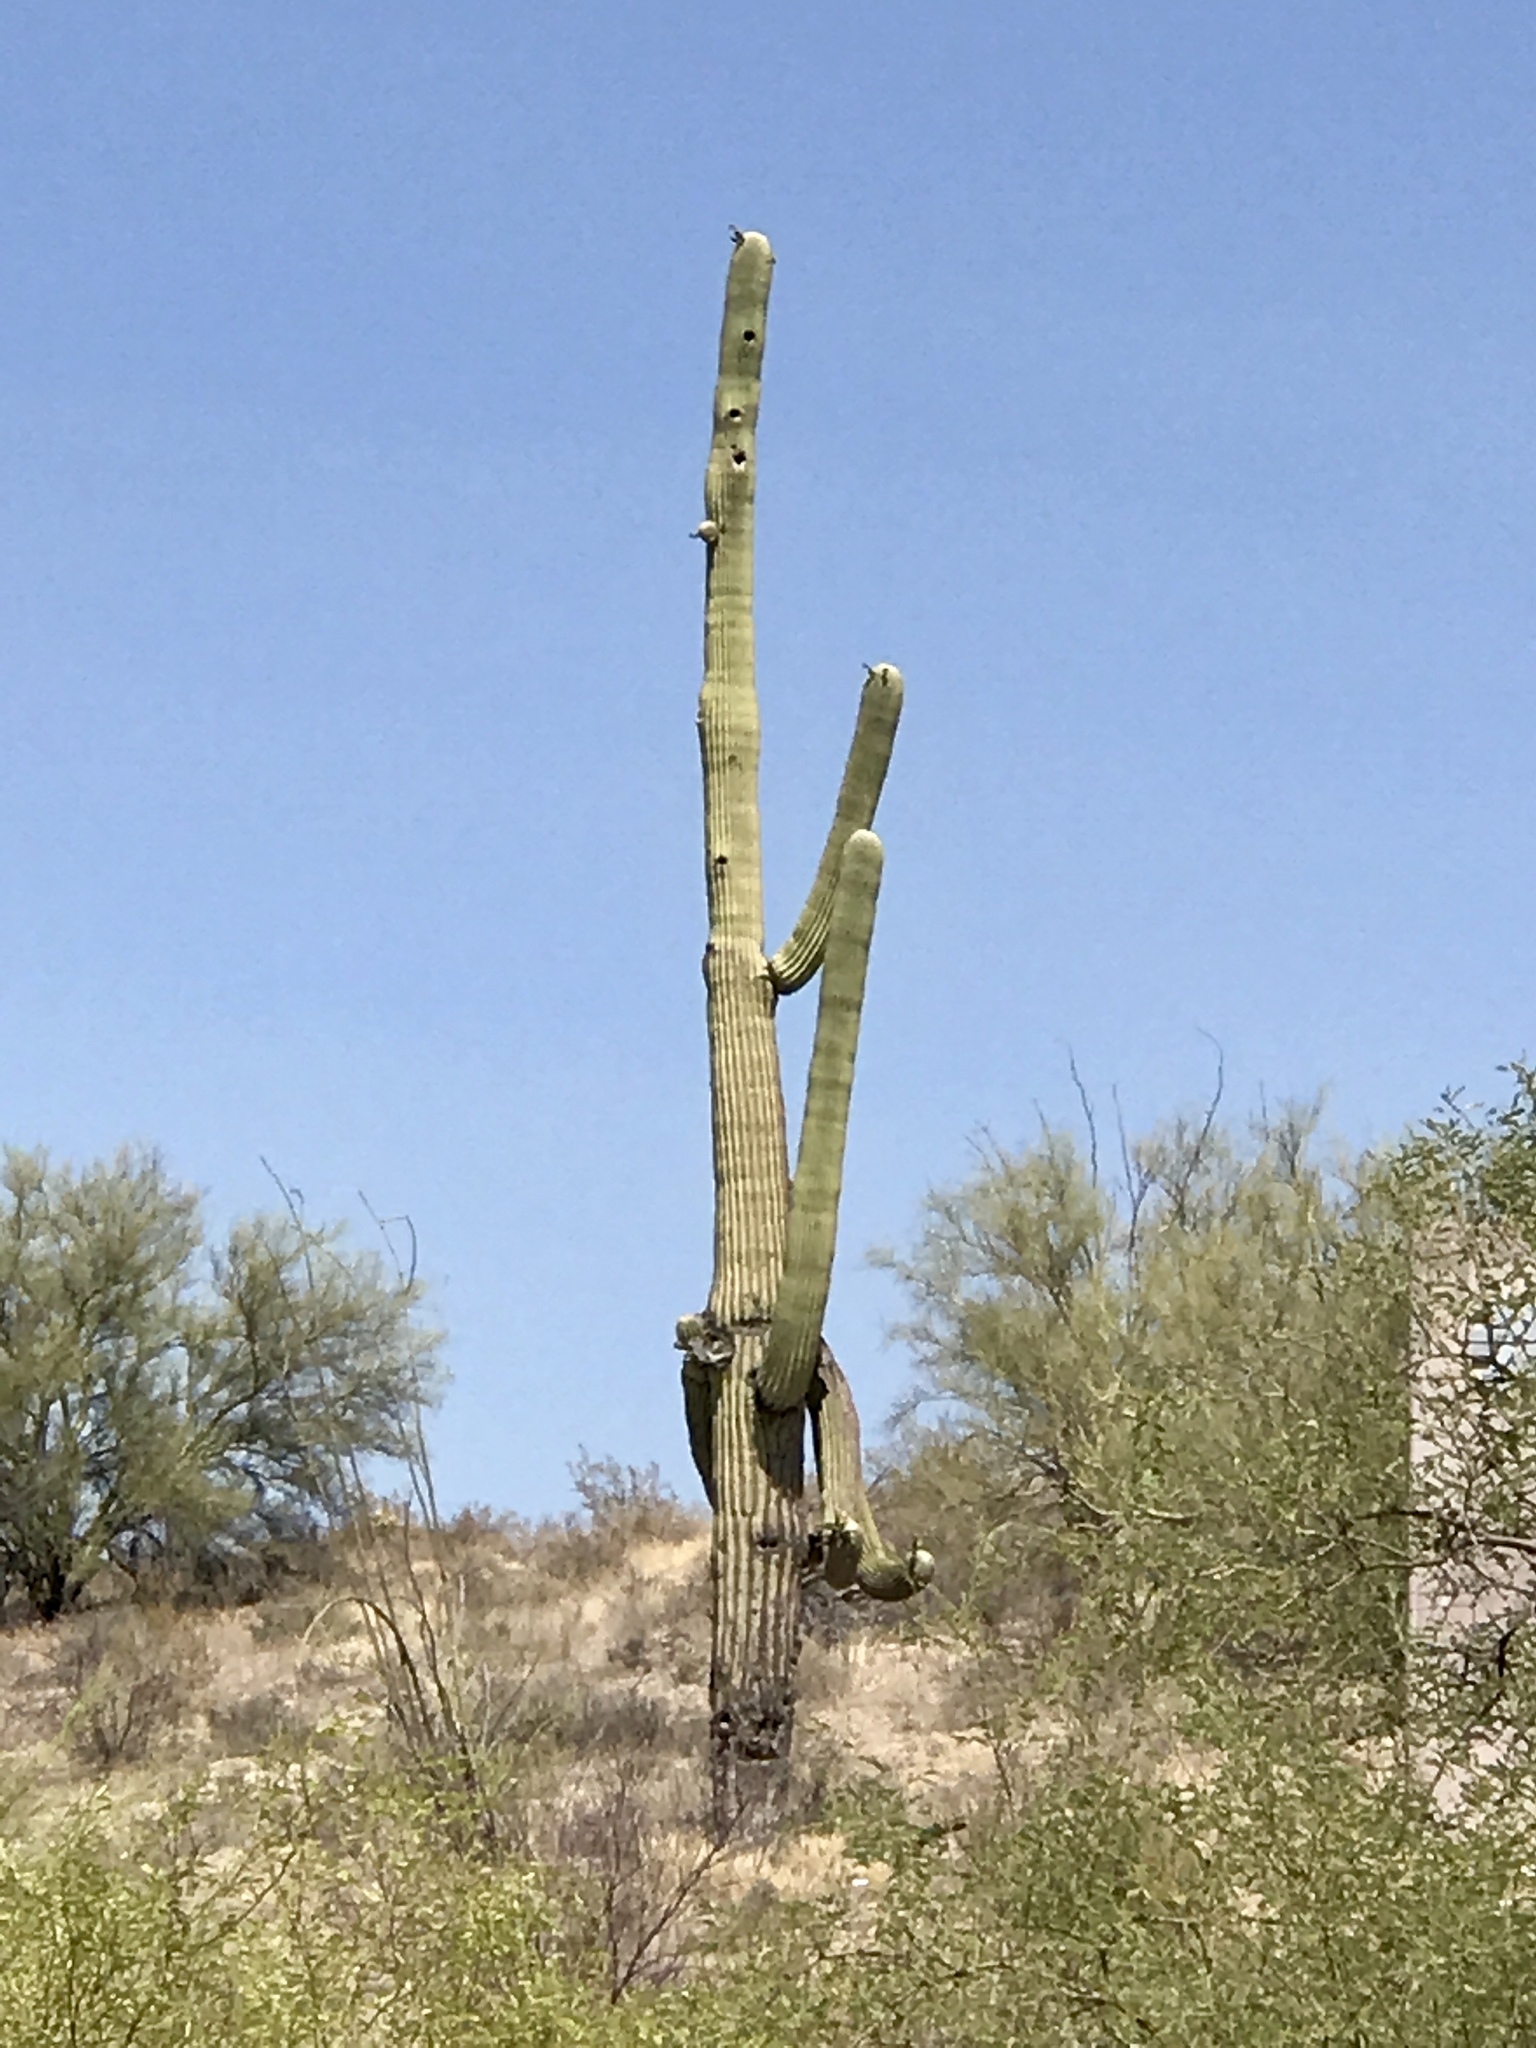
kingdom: Plantae
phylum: Tracheophyta
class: Magnoliopsida
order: Caryophyllales
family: Cactaceae
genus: Carnegiea
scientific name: Carnegiea gigantea
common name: Saguaro
